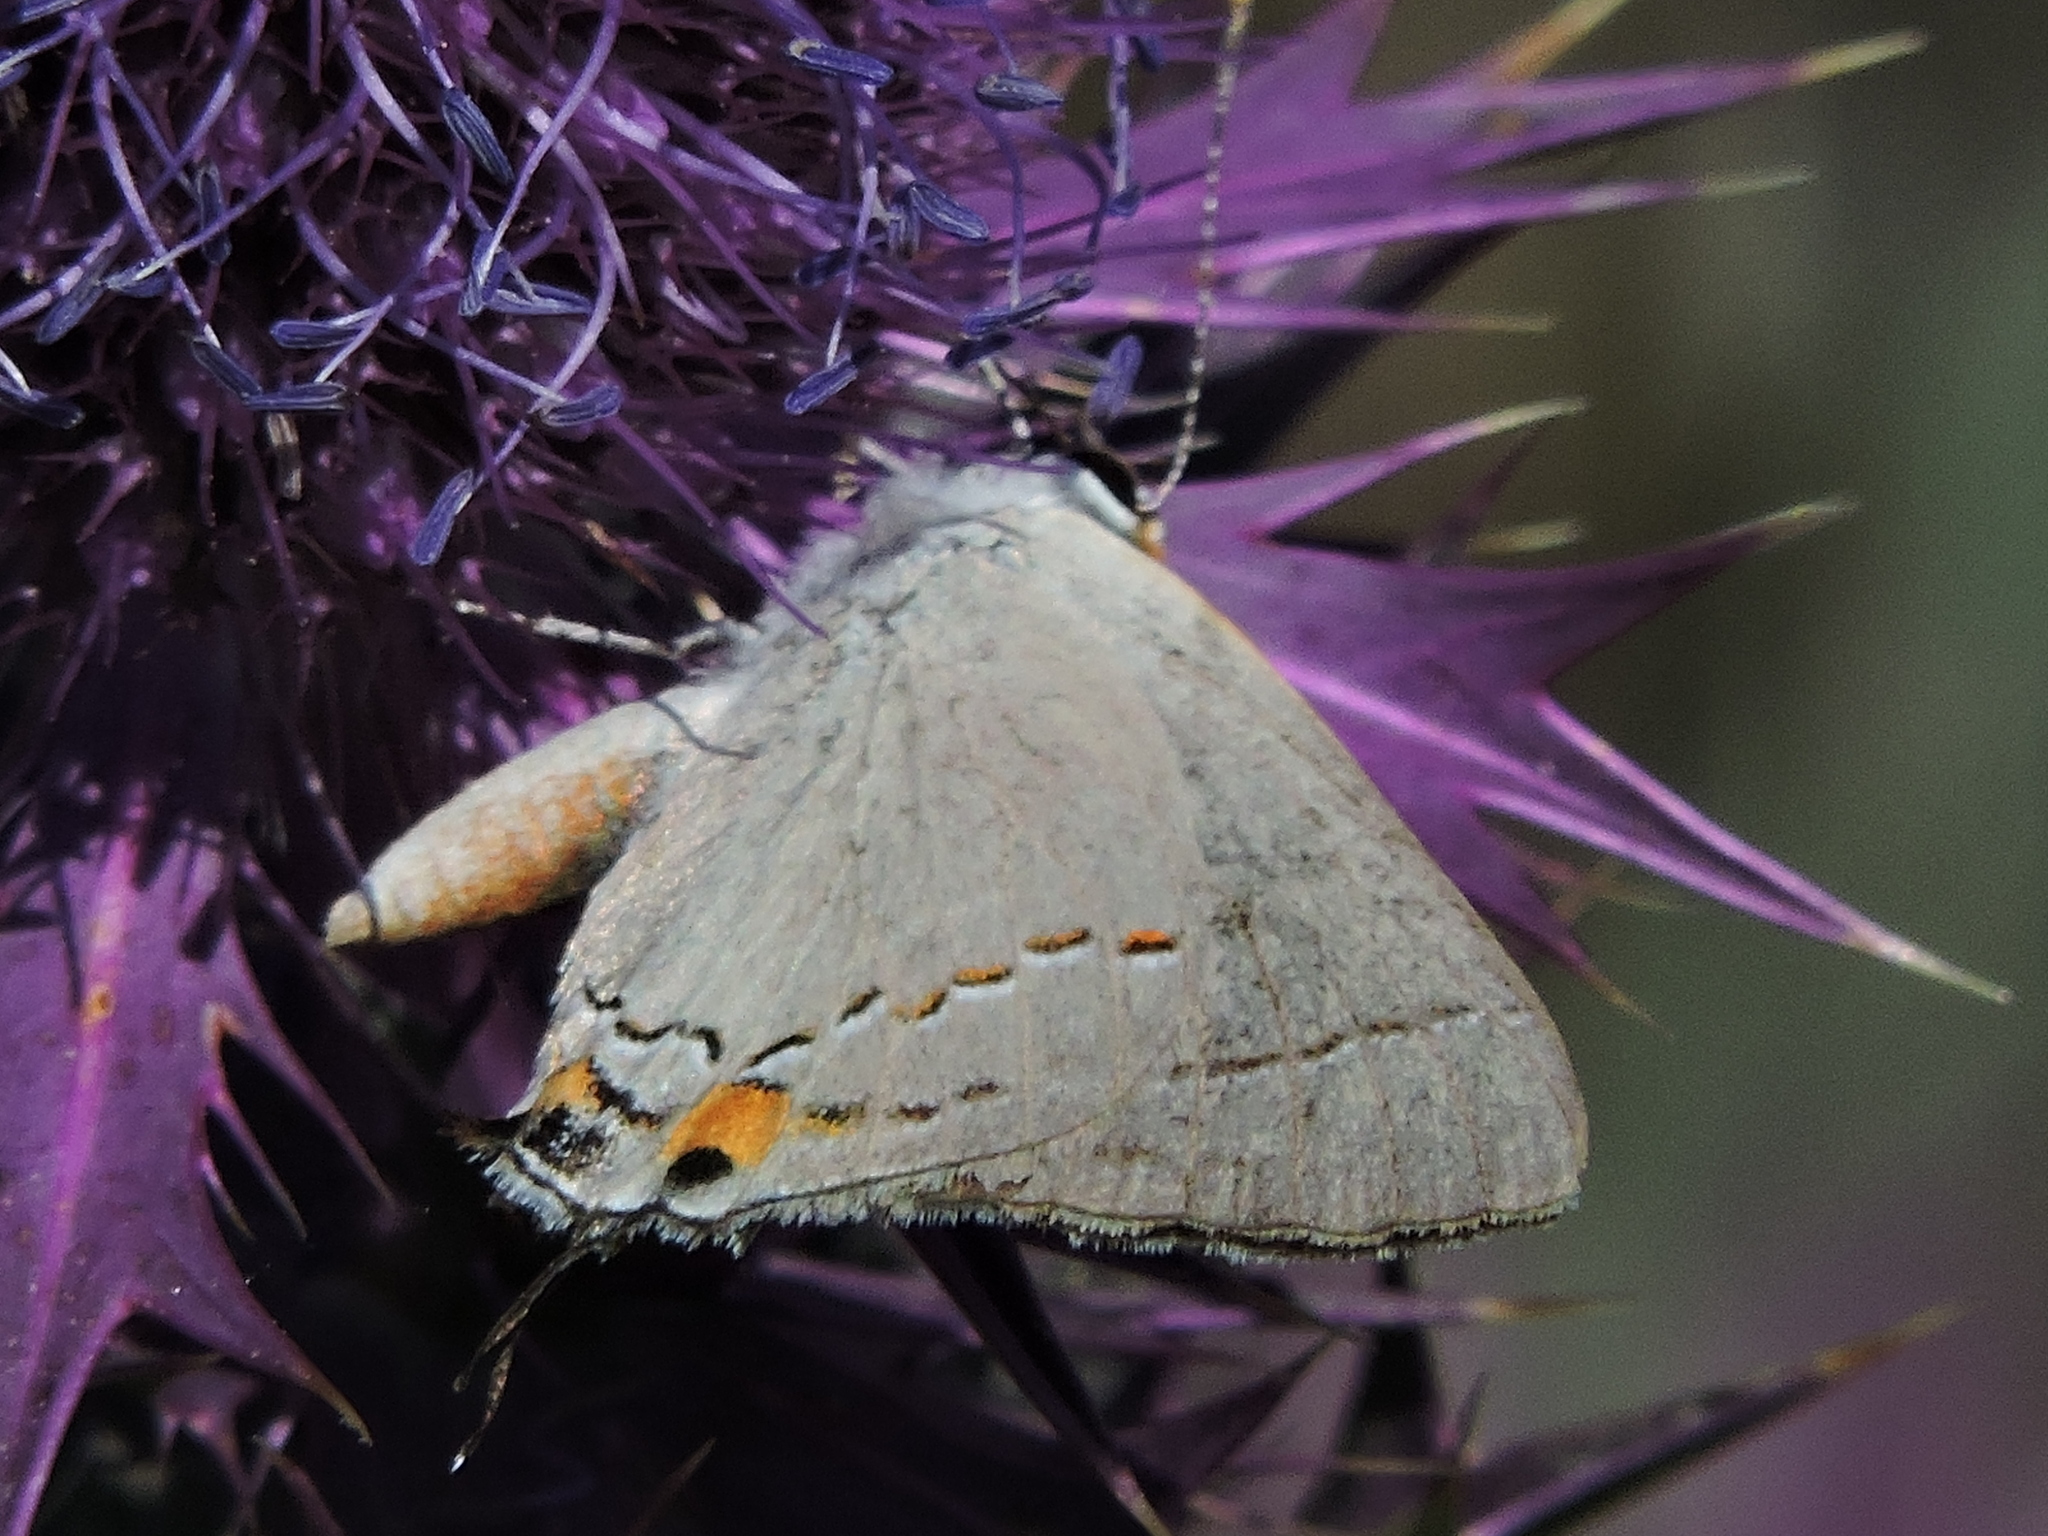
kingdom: Animalia
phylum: Arthropoda
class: Insecta
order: Lepidoptera
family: Lycaenidae
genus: Strymon
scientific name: Strymon melinus
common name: Gray hairstreak
